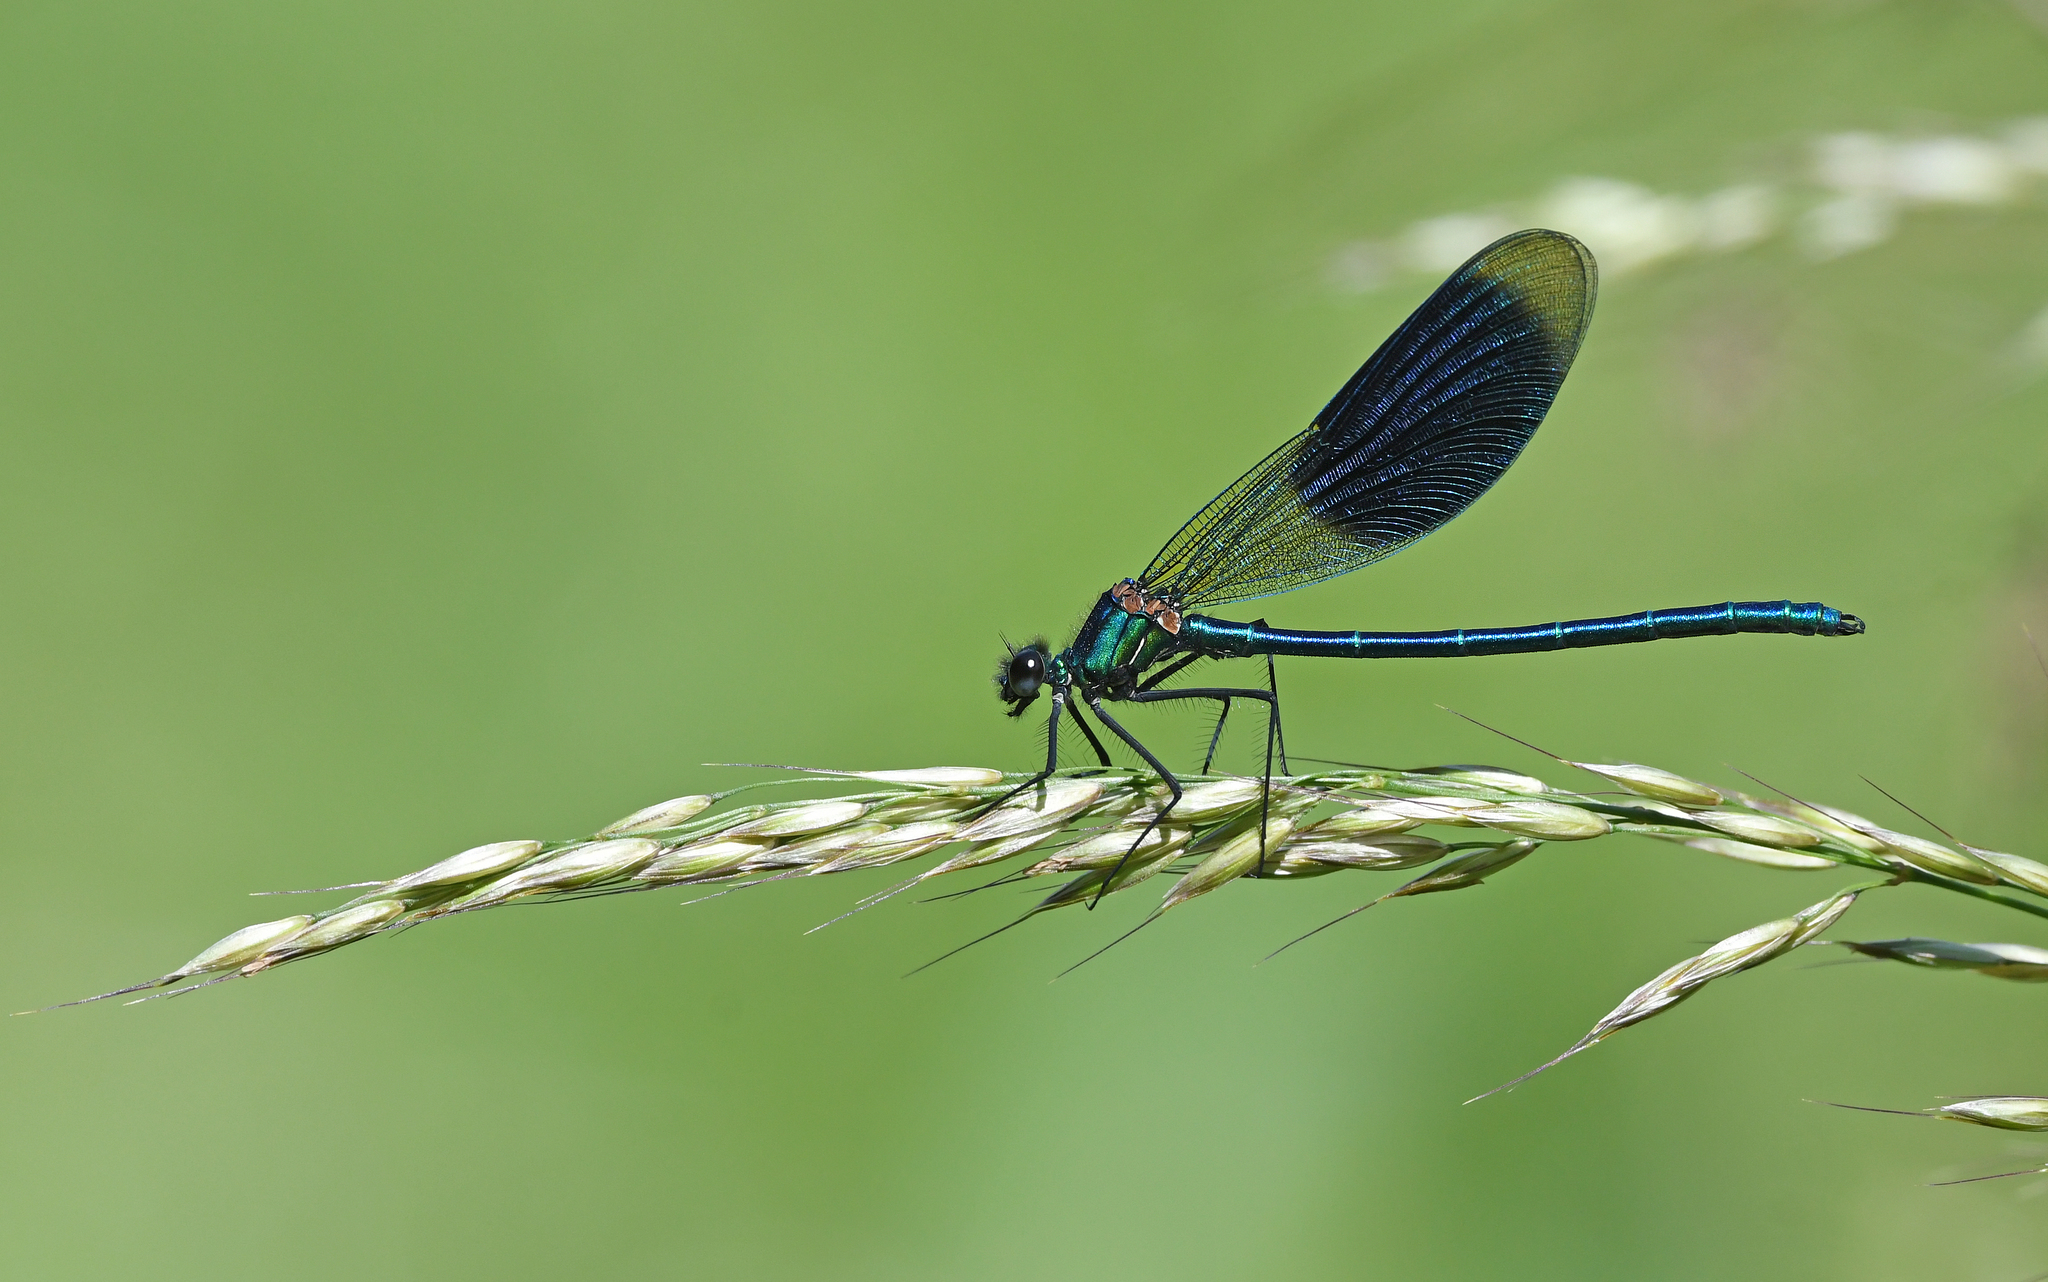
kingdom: Animalia
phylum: Arthropoda
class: Insecta
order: Odonata
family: Calopterygidae
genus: Calopteryx
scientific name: Calopteryx splendens
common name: Banded demoiselle
